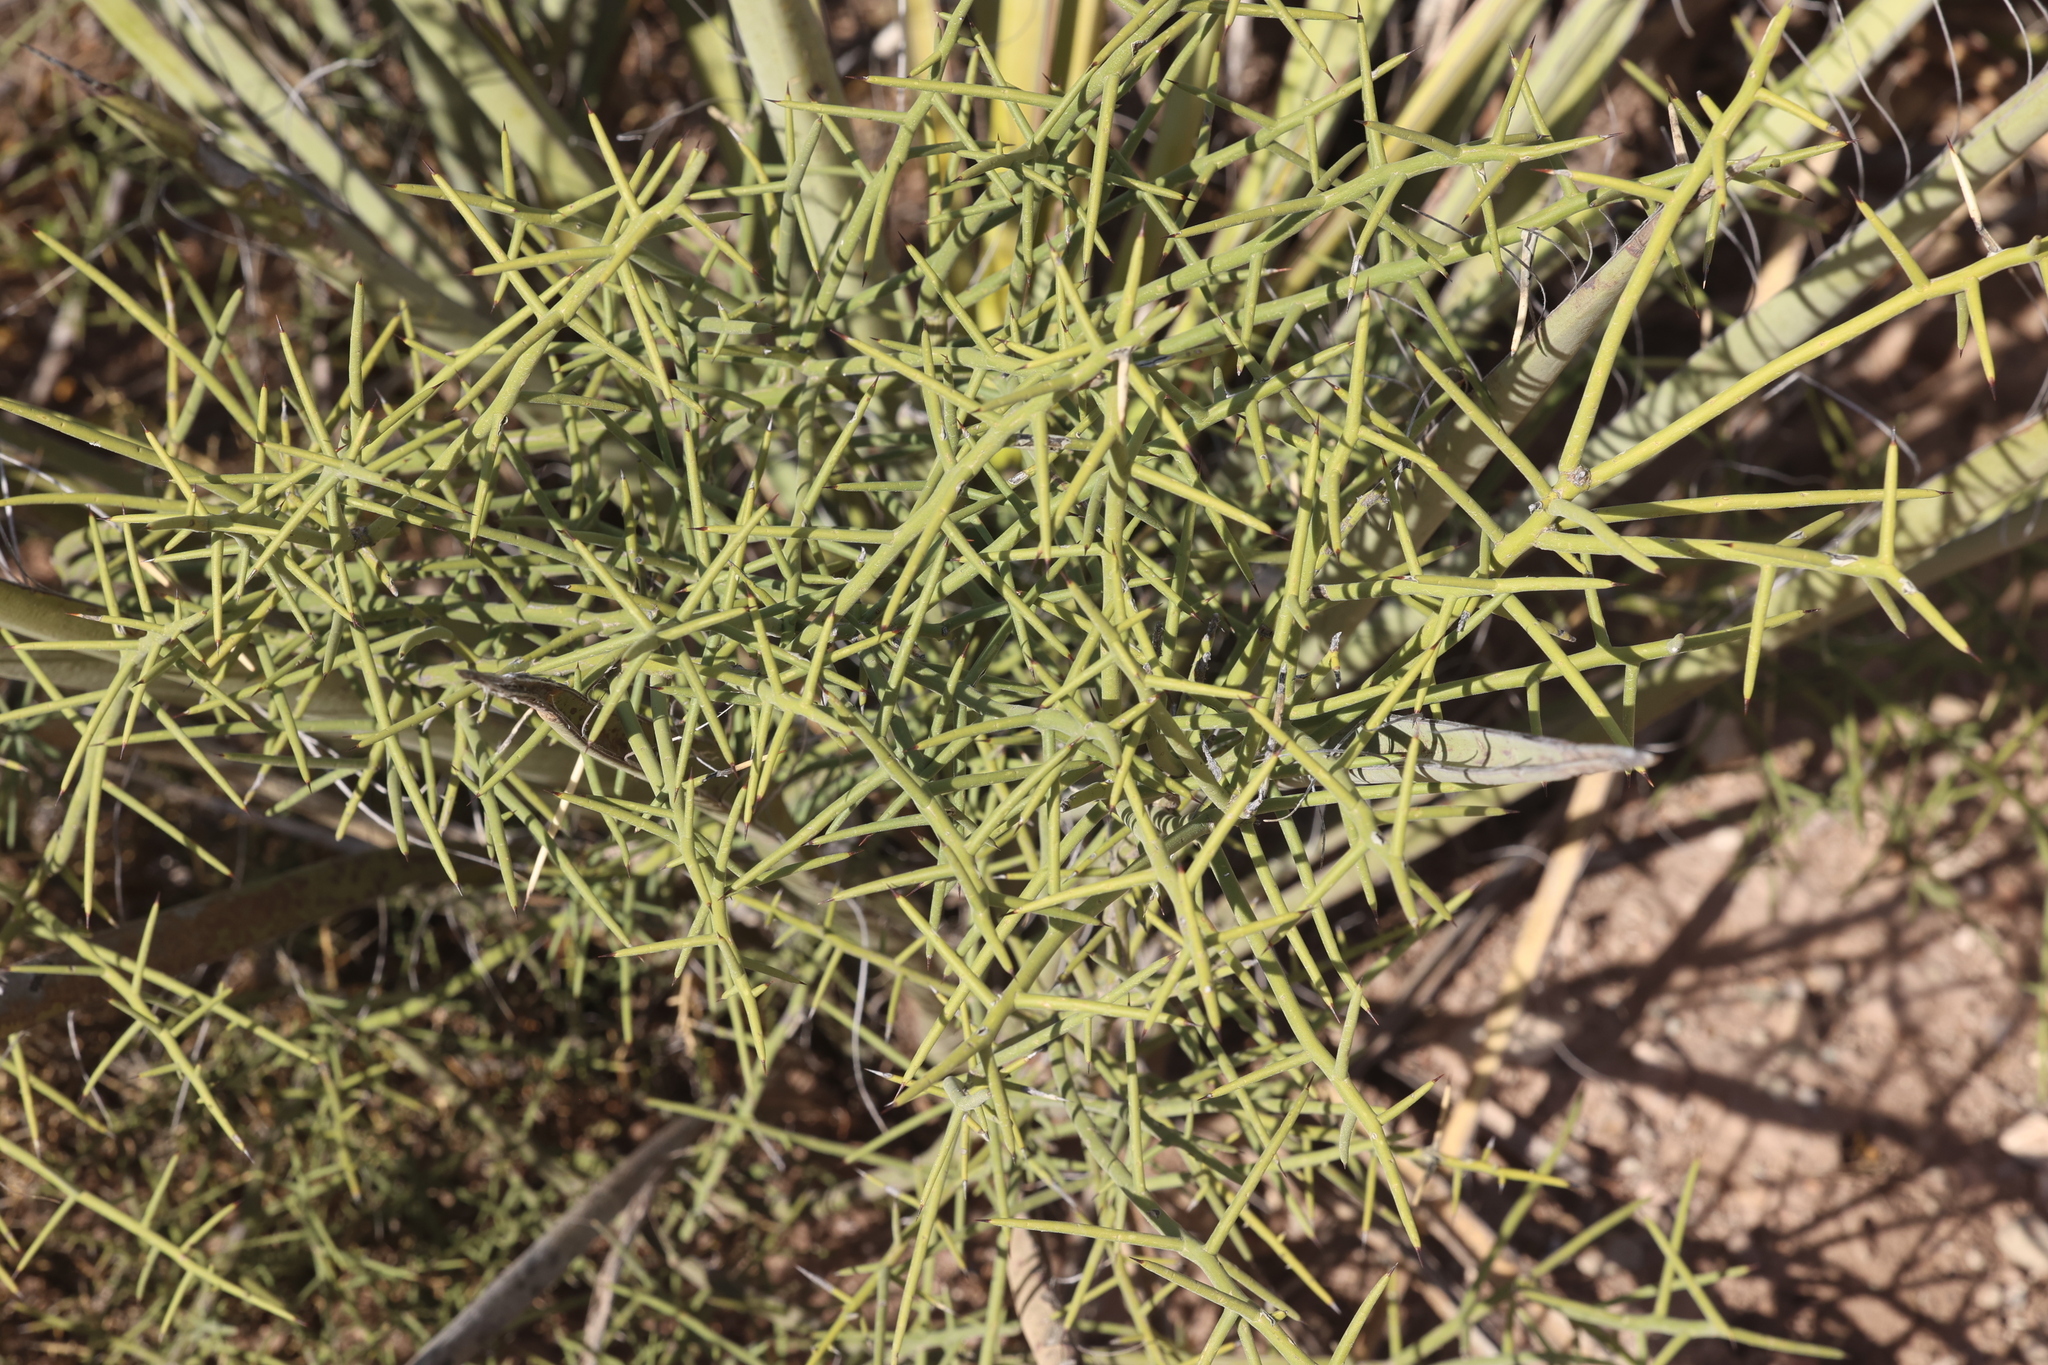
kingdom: Plantae
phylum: Tracheophyta
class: Magnoliopsida
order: Brassicales
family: Koeberliniaceae
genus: Koeberlinia
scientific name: Koeberlinia spinosa
